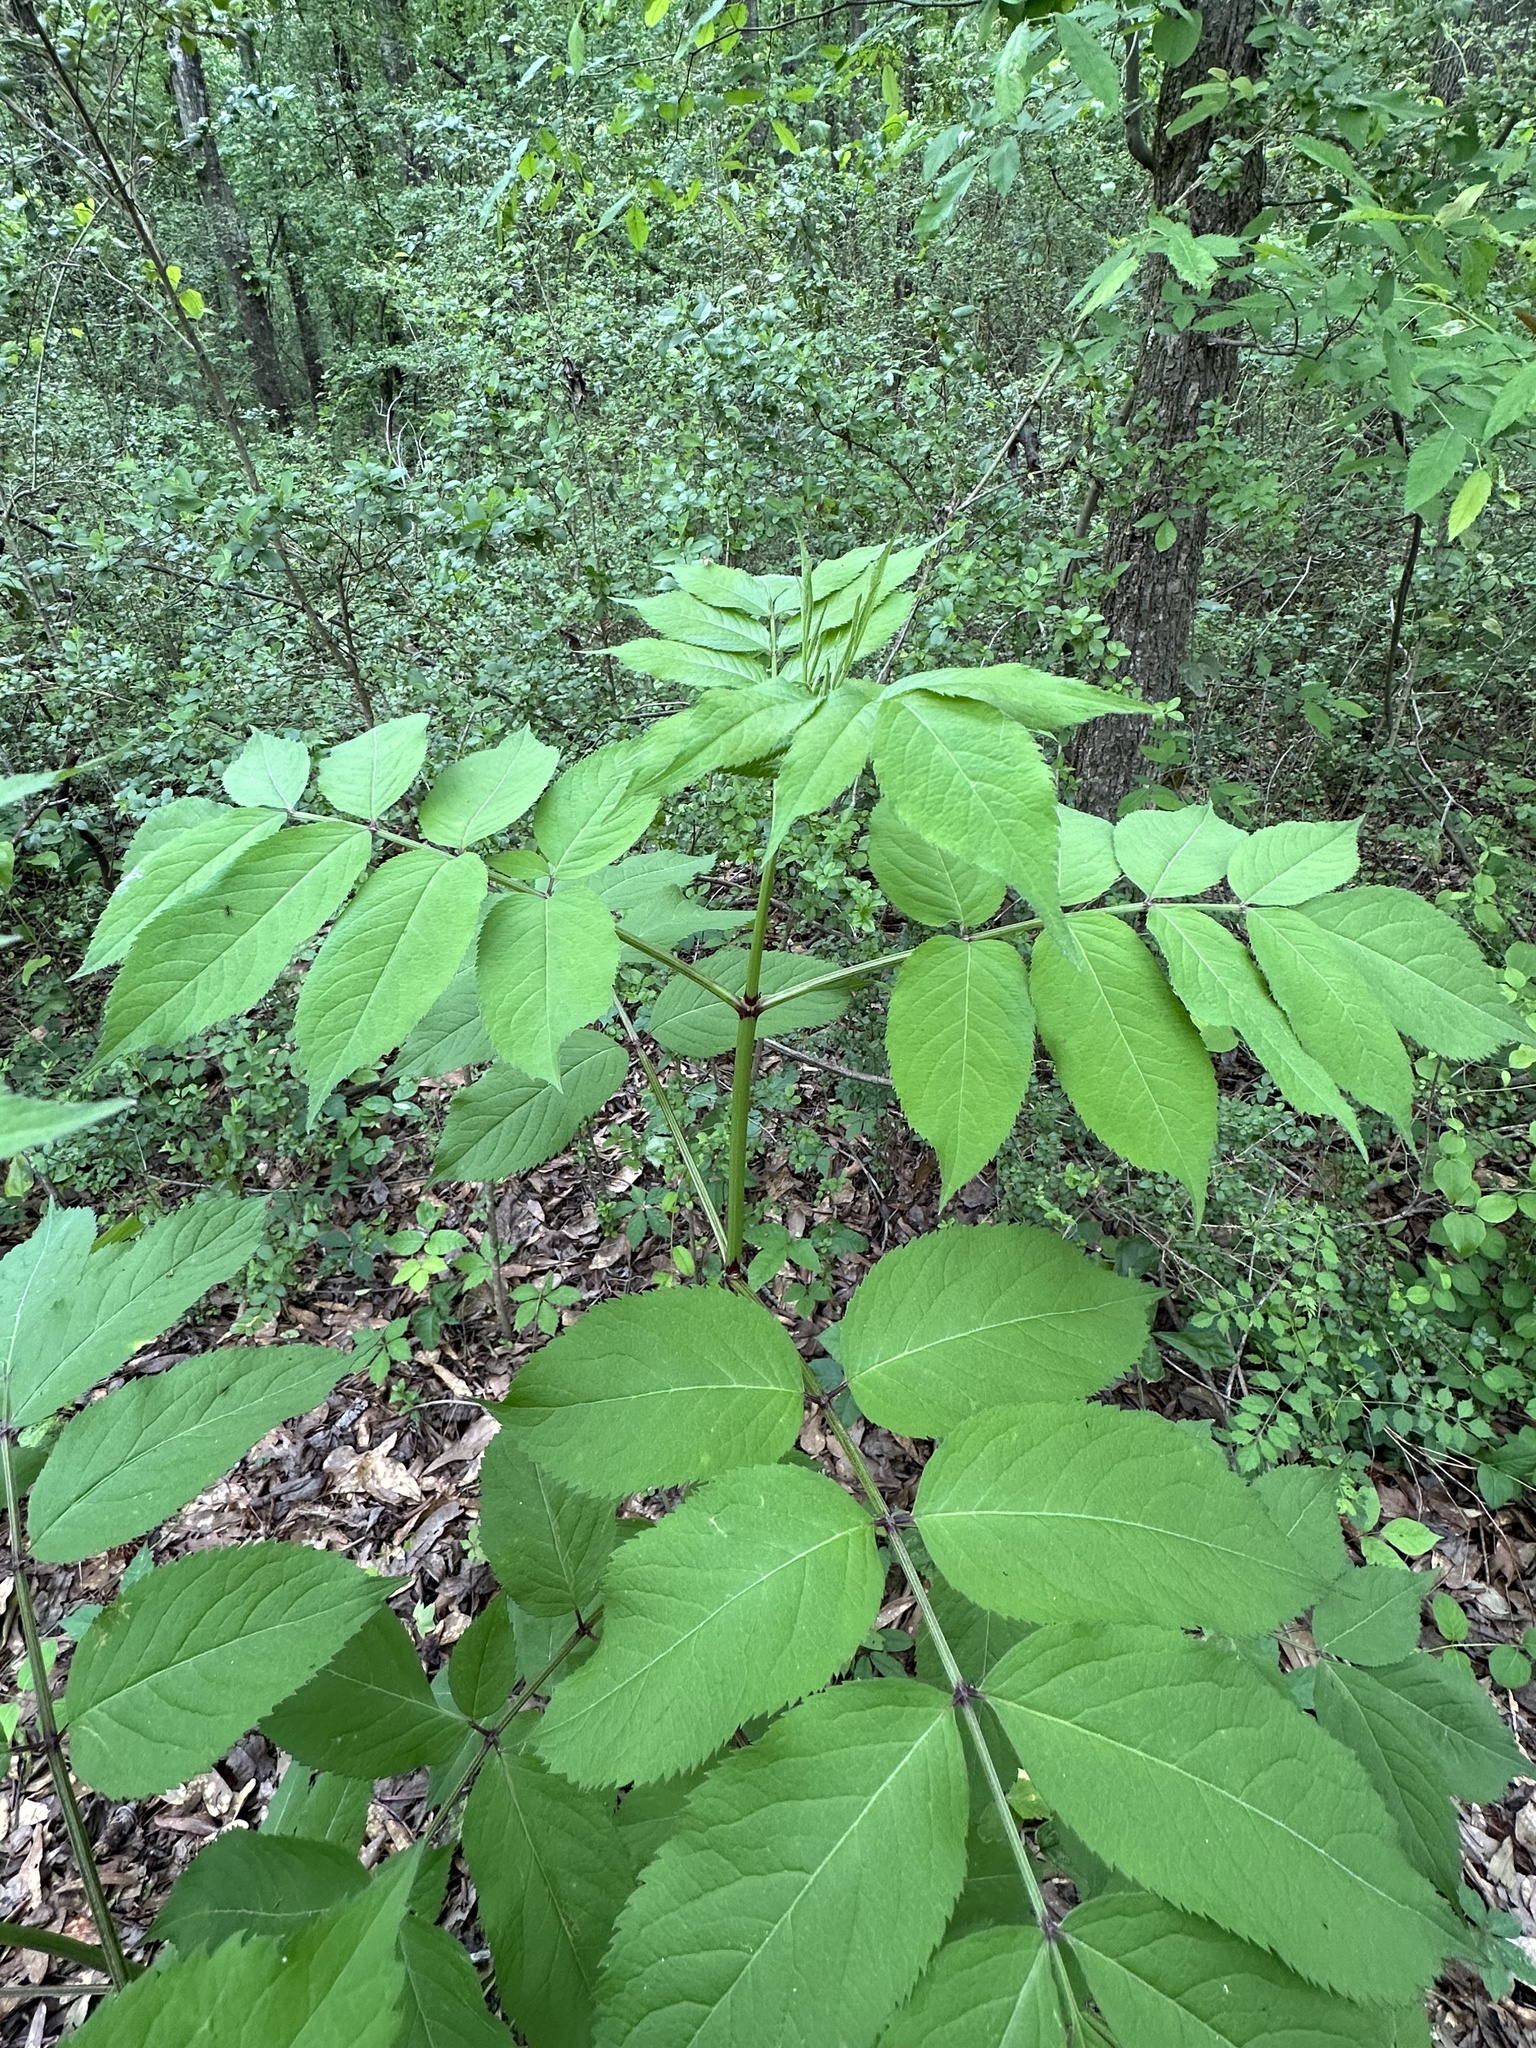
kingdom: Plantae
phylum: Tracheophyta
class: Magnoliopsida
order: Dipsacales
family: Viburnaceae
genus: Sambucus
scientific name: Sambucus canadensis
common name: American elder
